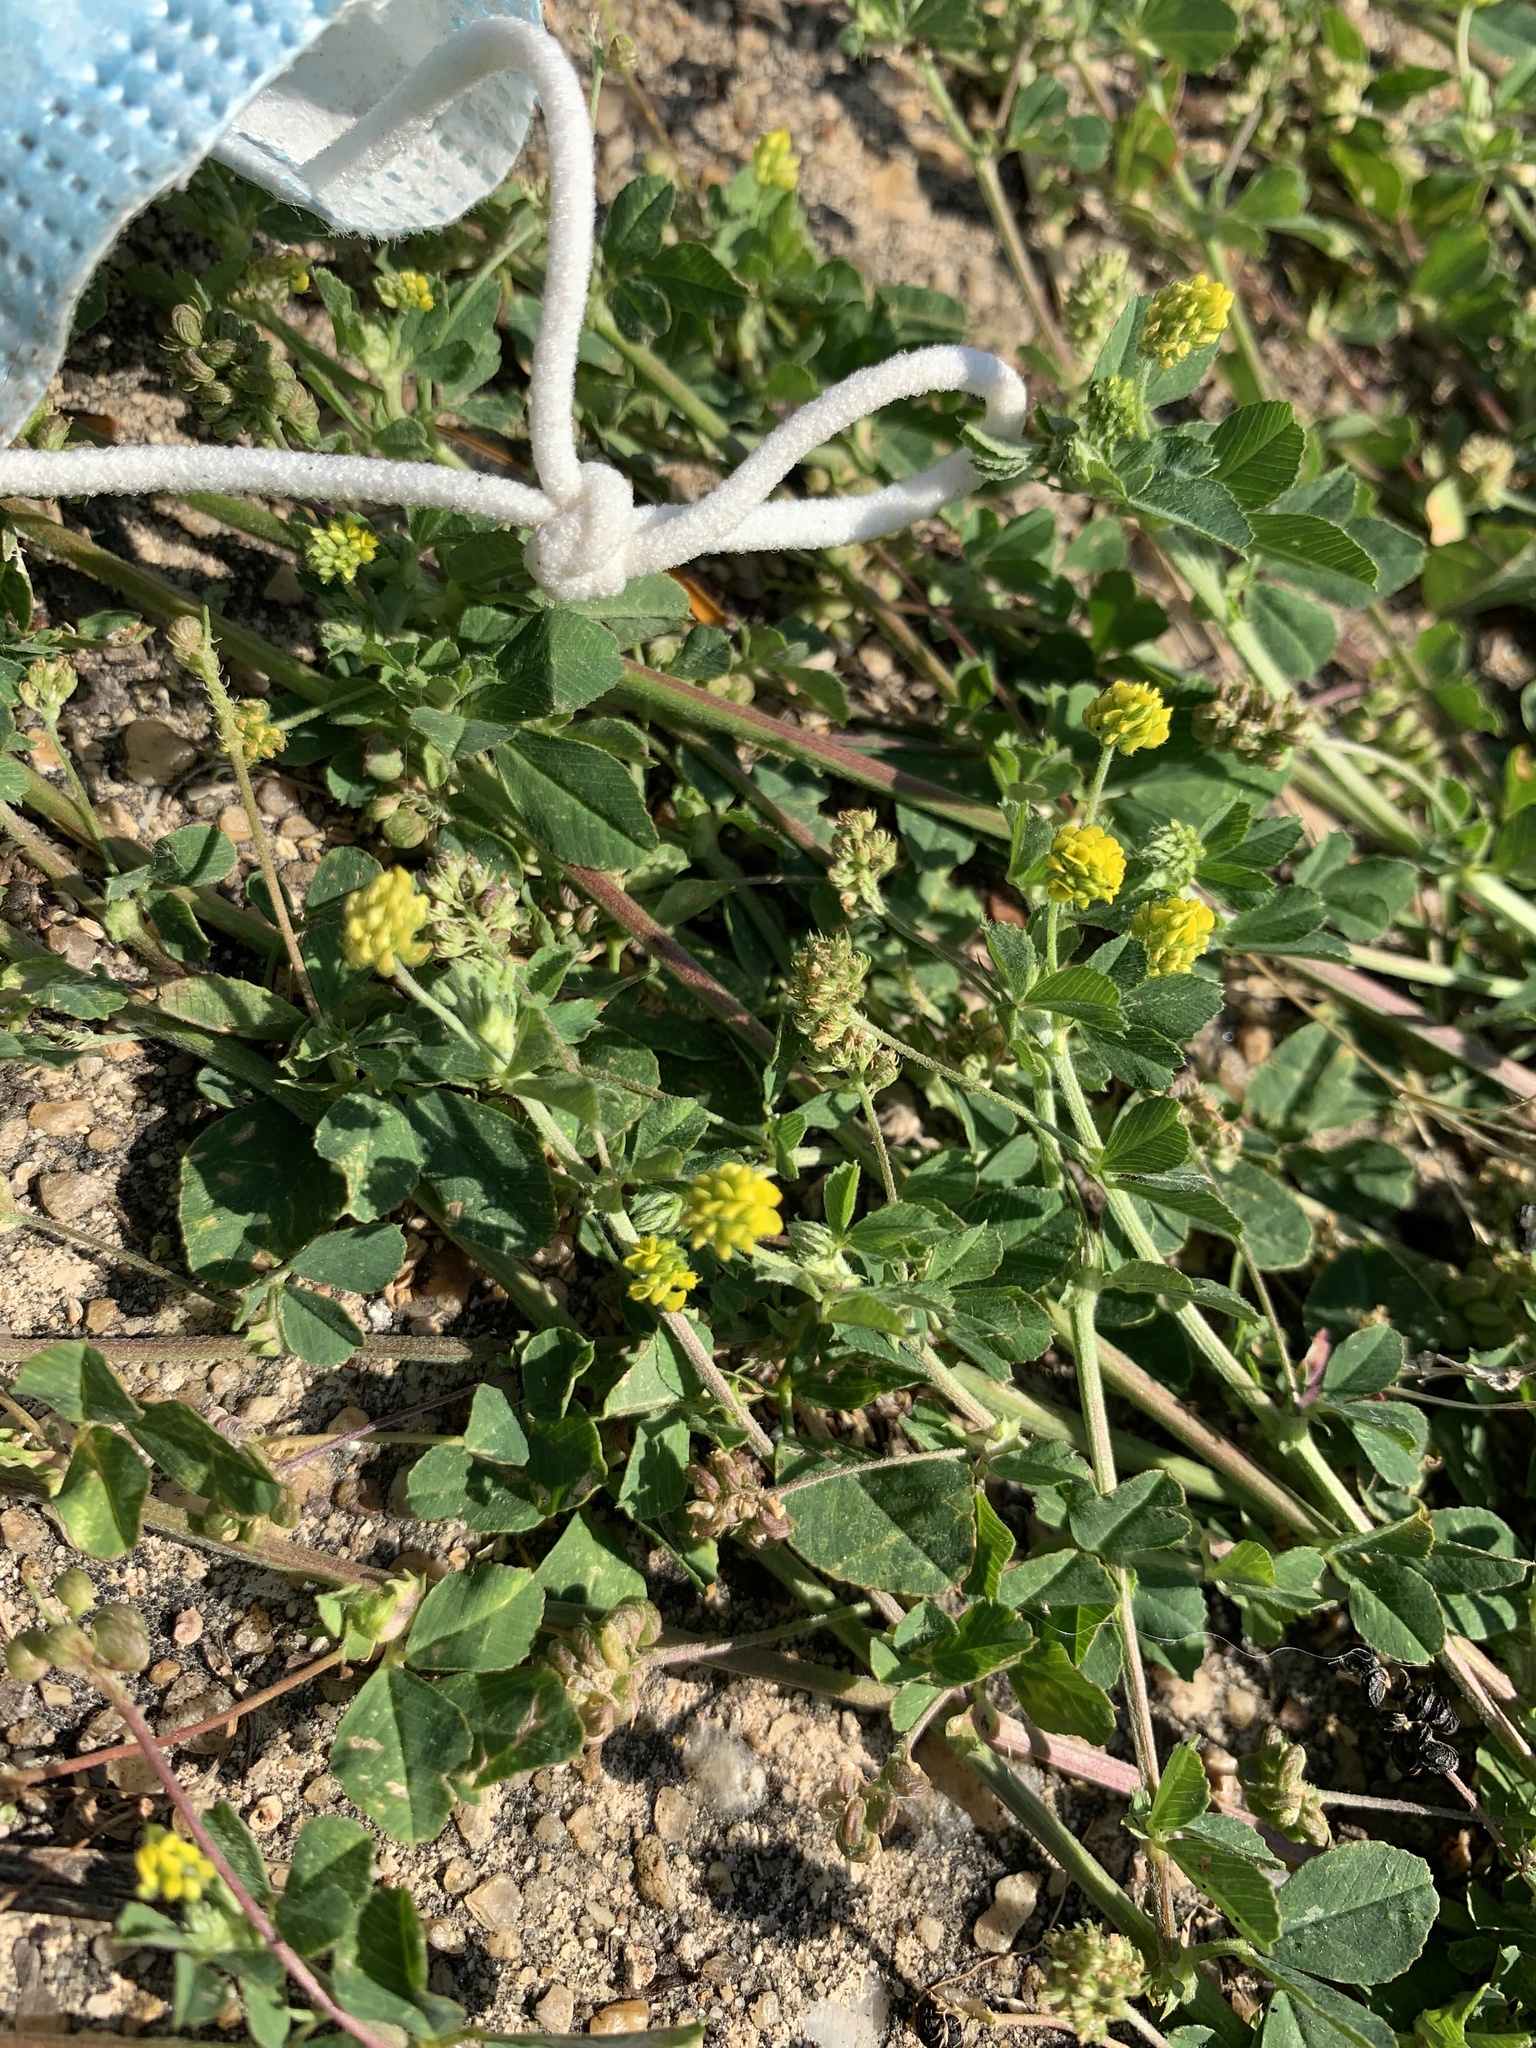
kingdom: Plantae
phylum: Tracheophyta
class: Magnoliopsida
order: Fabales
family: Fabaceae
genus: Medicago
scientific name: Medicago lupulina
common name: Black medick
